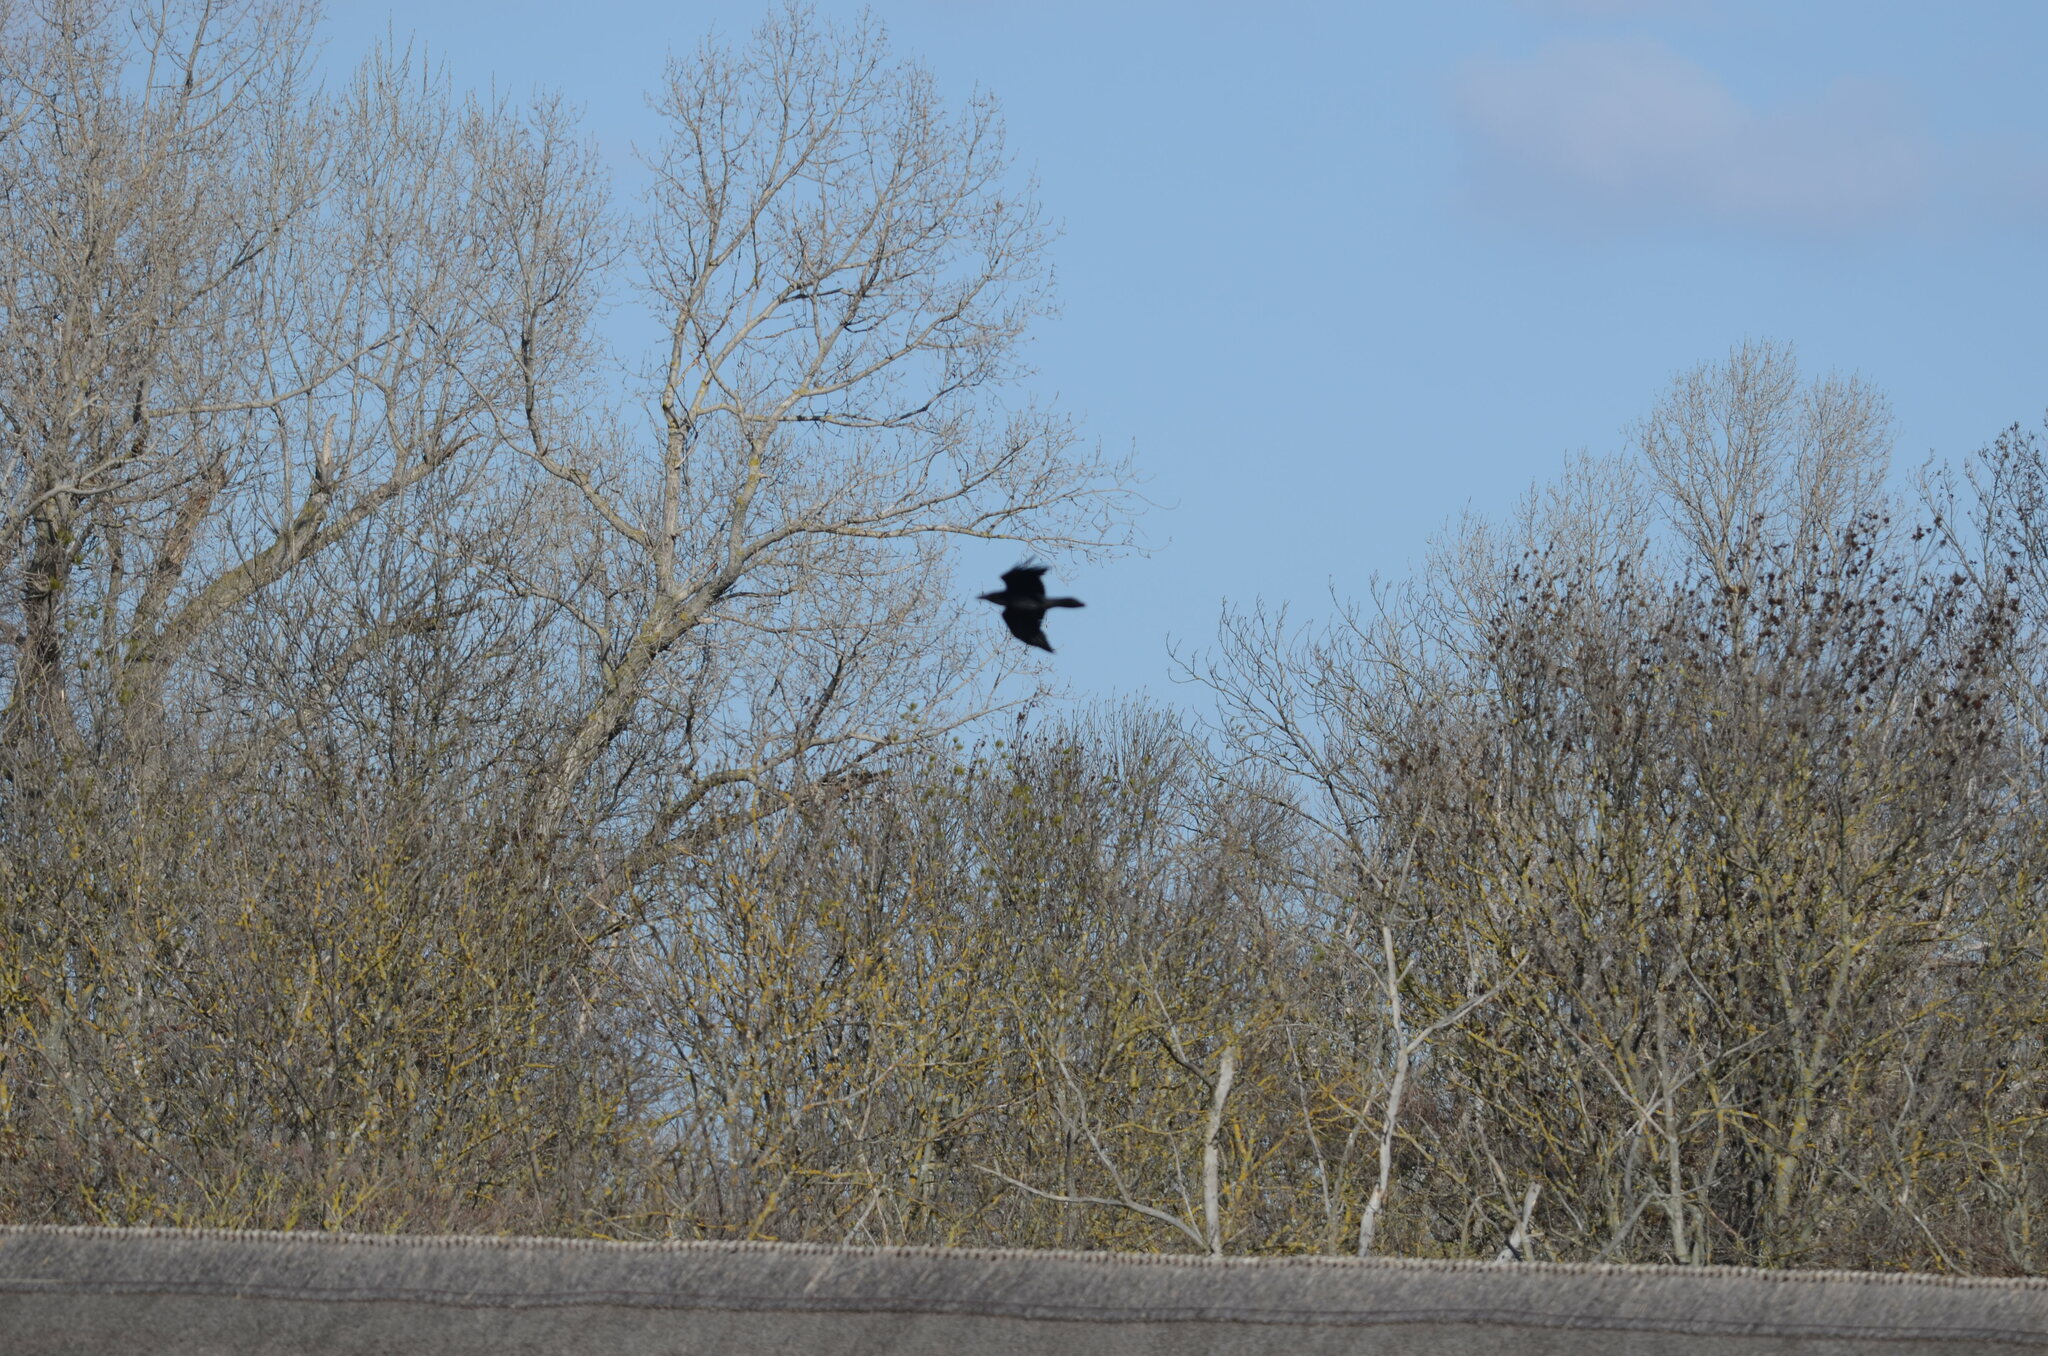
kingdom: Animalia
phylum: Chordata
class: Aves
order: Passeriformes
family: Corvidae
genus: Corvus
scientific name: Corvus corax
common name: Common raven
